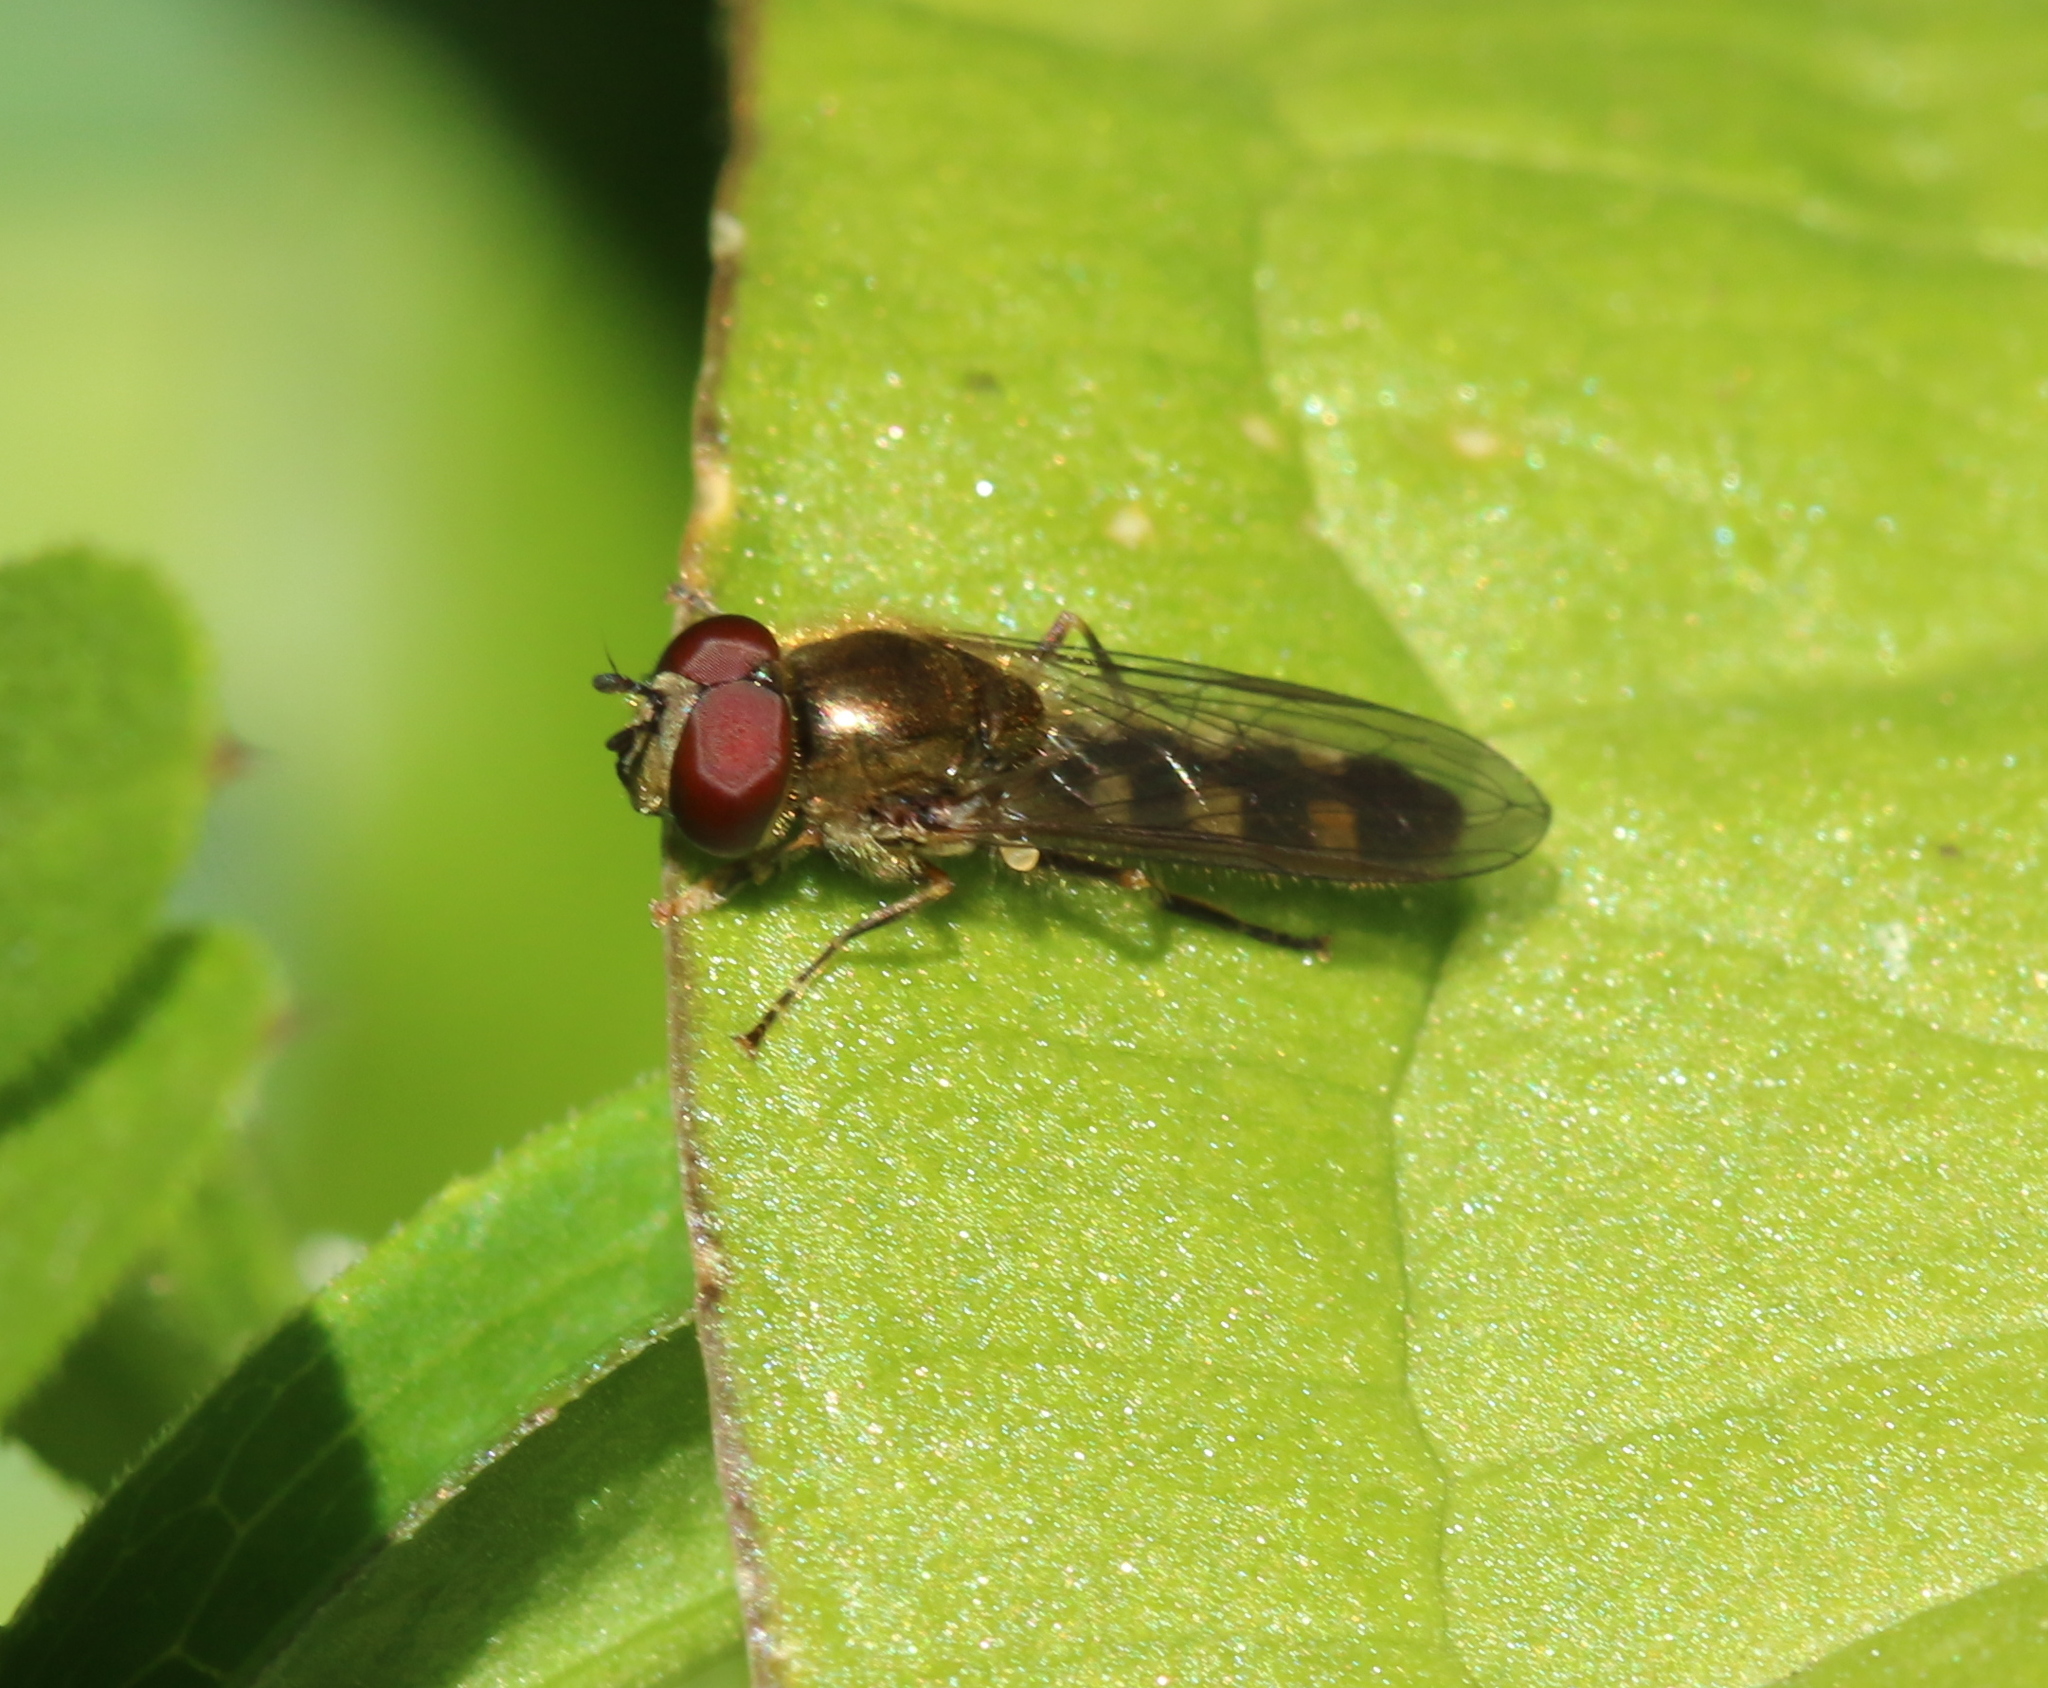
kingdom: Animalia
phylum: Arthropoda
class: Insecta
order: Diptera
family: Syrphidae
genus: Platycheirus
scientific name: Platycheirus scutatus
